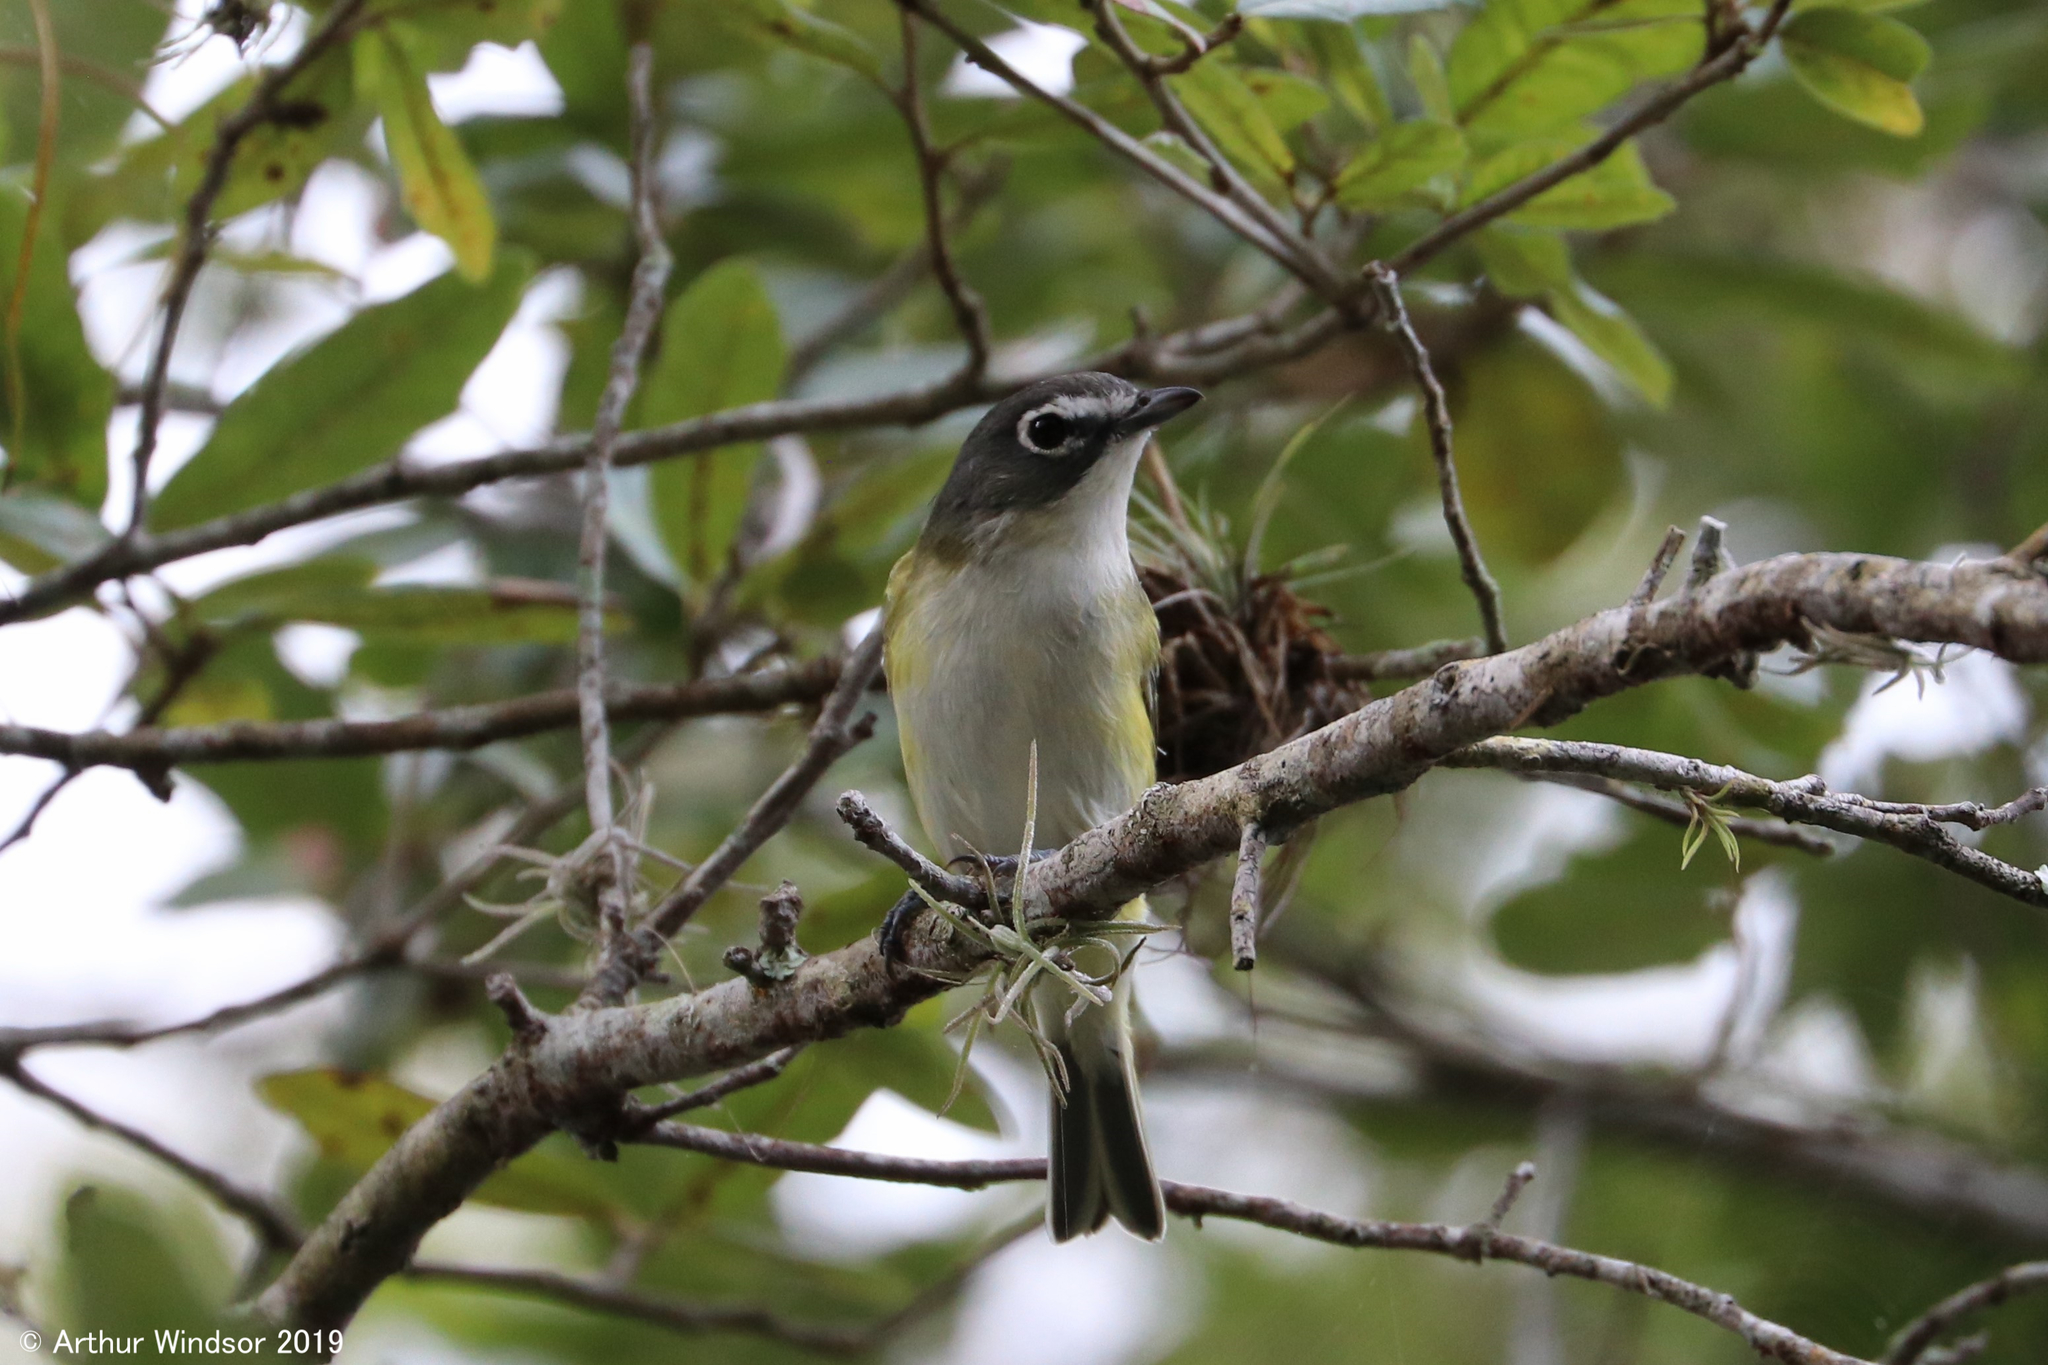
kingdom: Animalia
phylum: Chordata
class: Aves
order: Passeriformes
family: Vireonidae
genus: Vireo
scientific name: Vireo solitarius
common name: Blue-headed vireo
